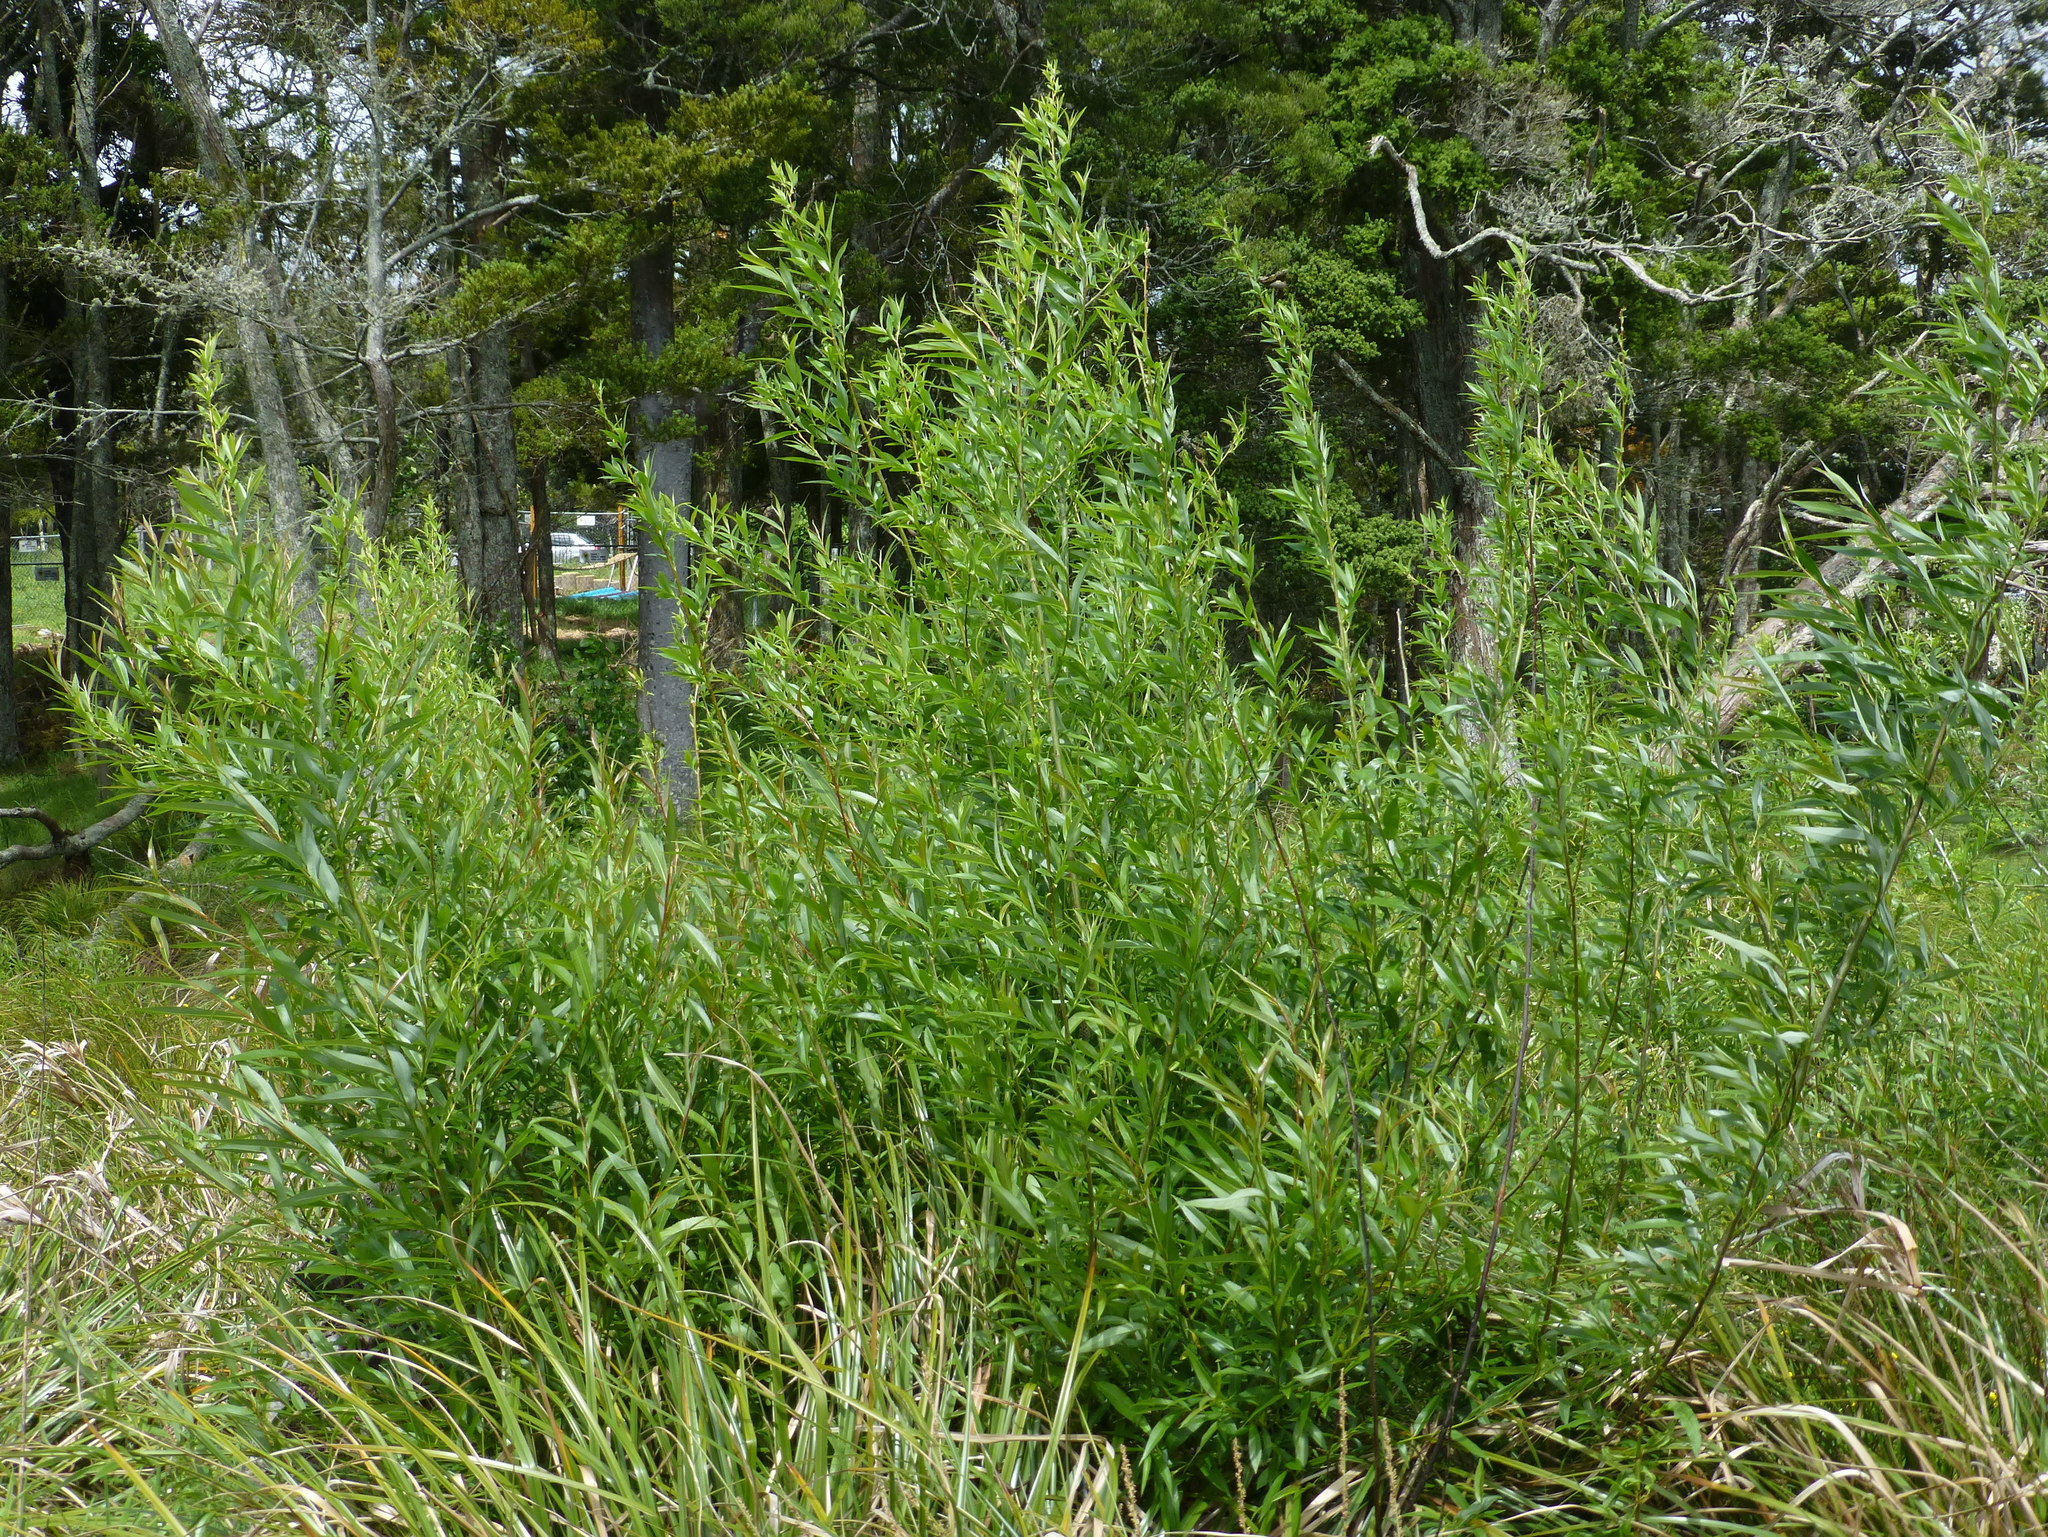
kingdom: Plantae
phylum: Tracheophyta
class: Magnoliopsida
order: Malpighiales
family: Salicaceae
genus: Salix
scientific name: Salix fragilis
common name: Crack willow
